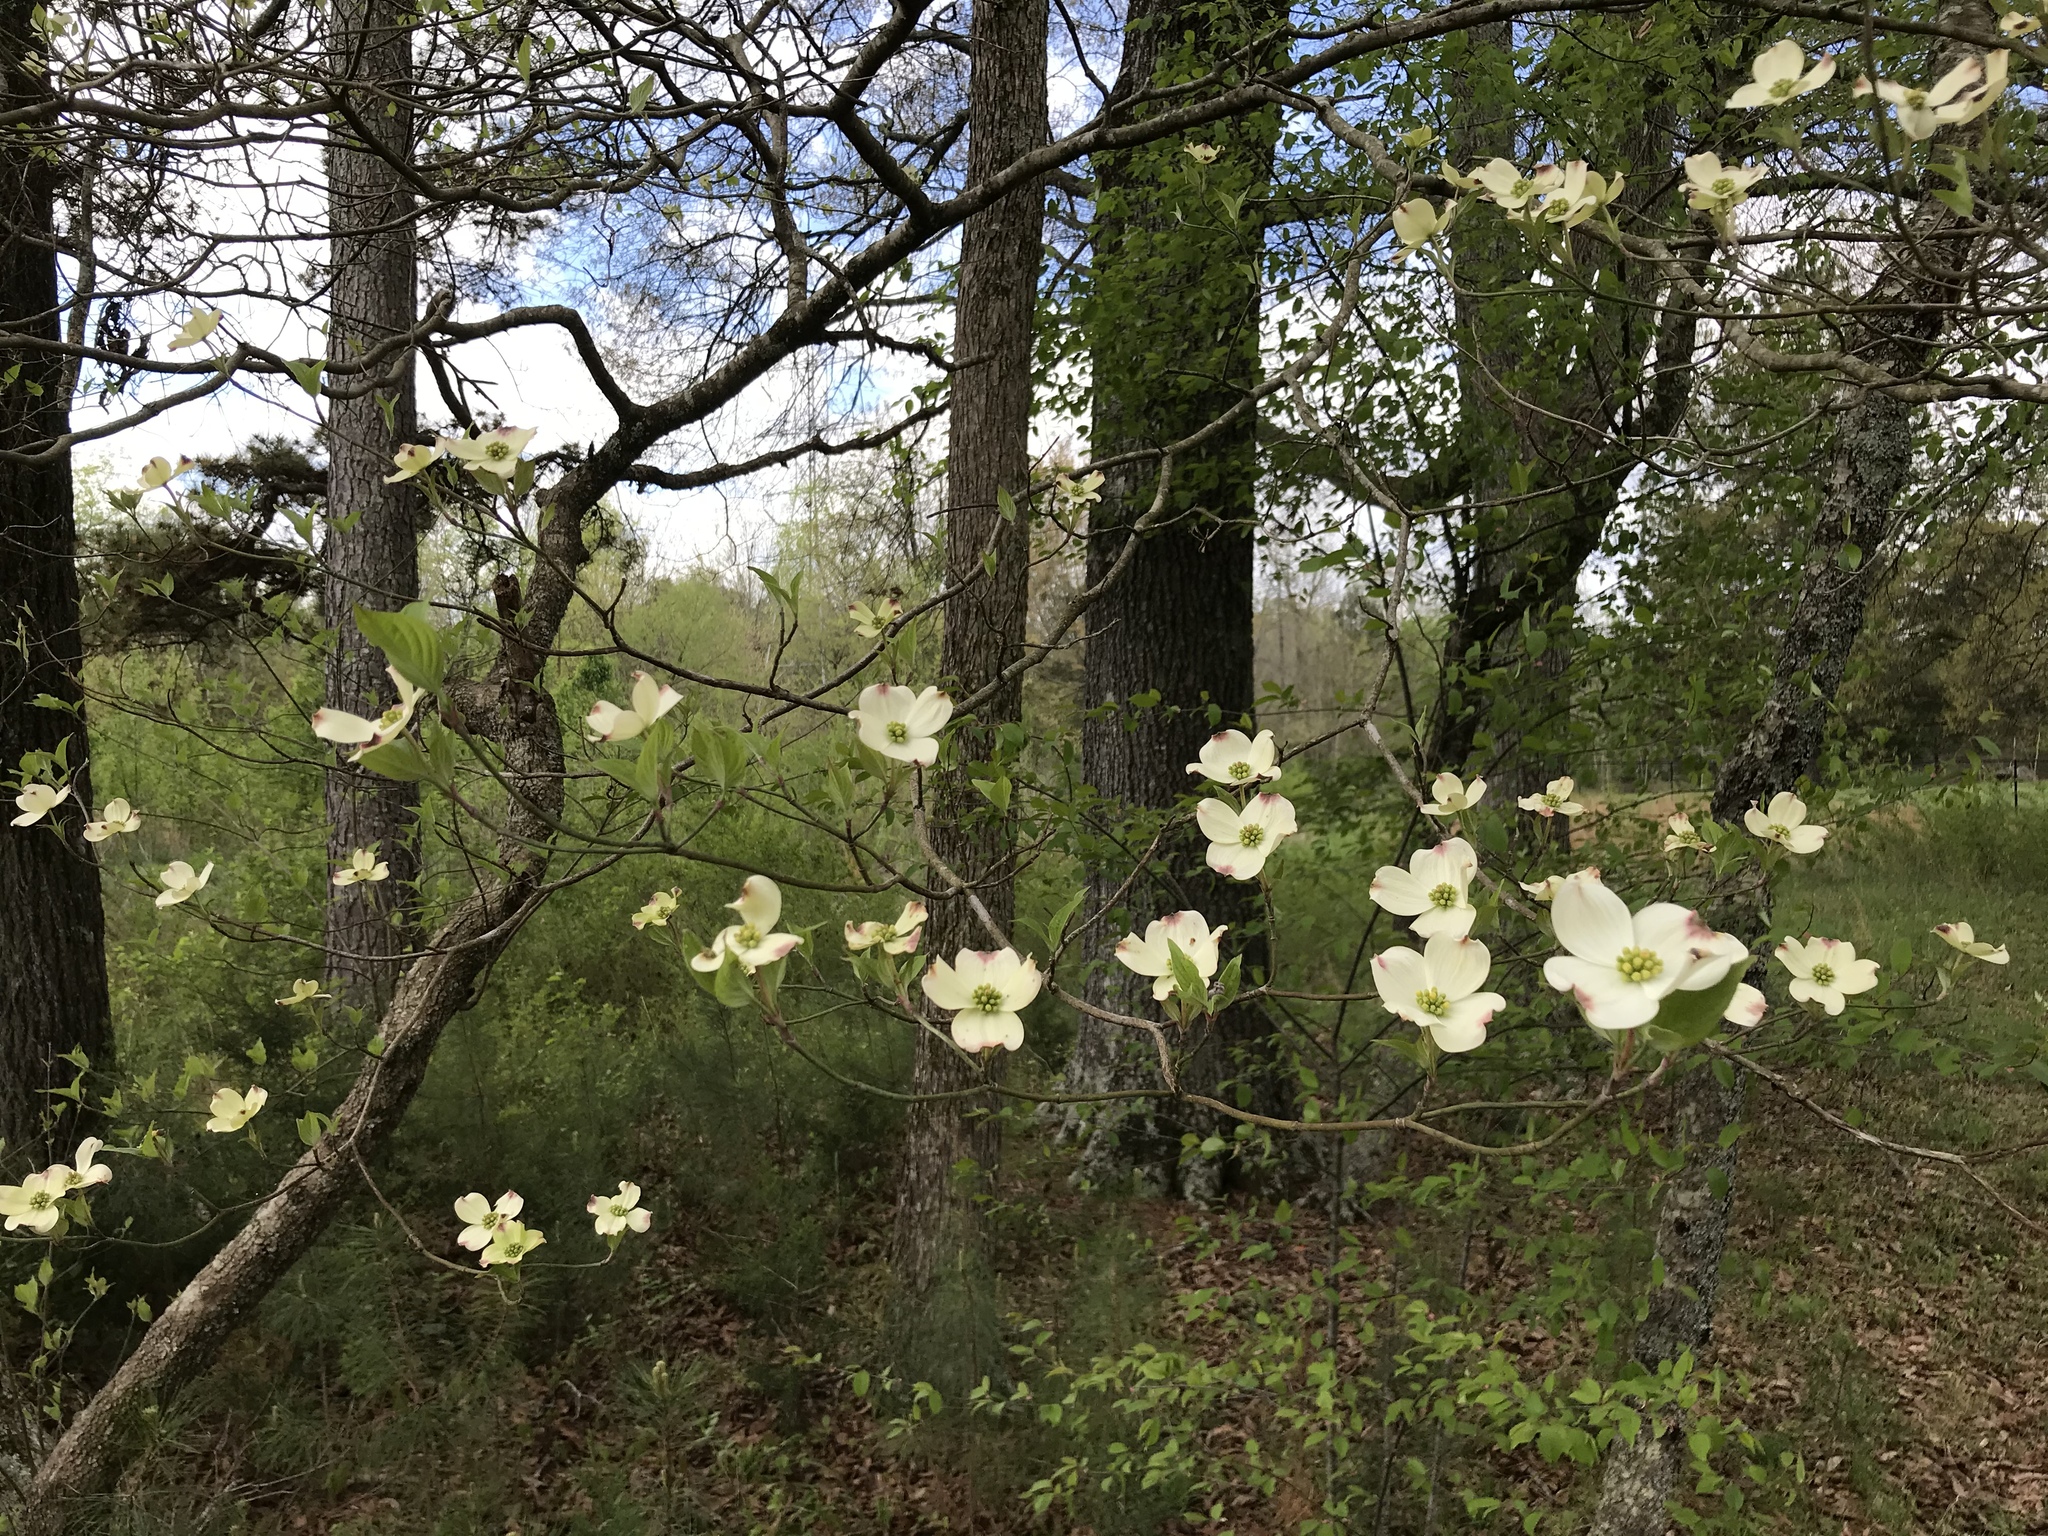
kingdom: Plantae
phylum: Tracheophyta
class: Magnoliopsida
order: Cornales
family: Cornaceae
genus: Cornus
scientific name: Cornus florida
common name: Flowering dogwood
